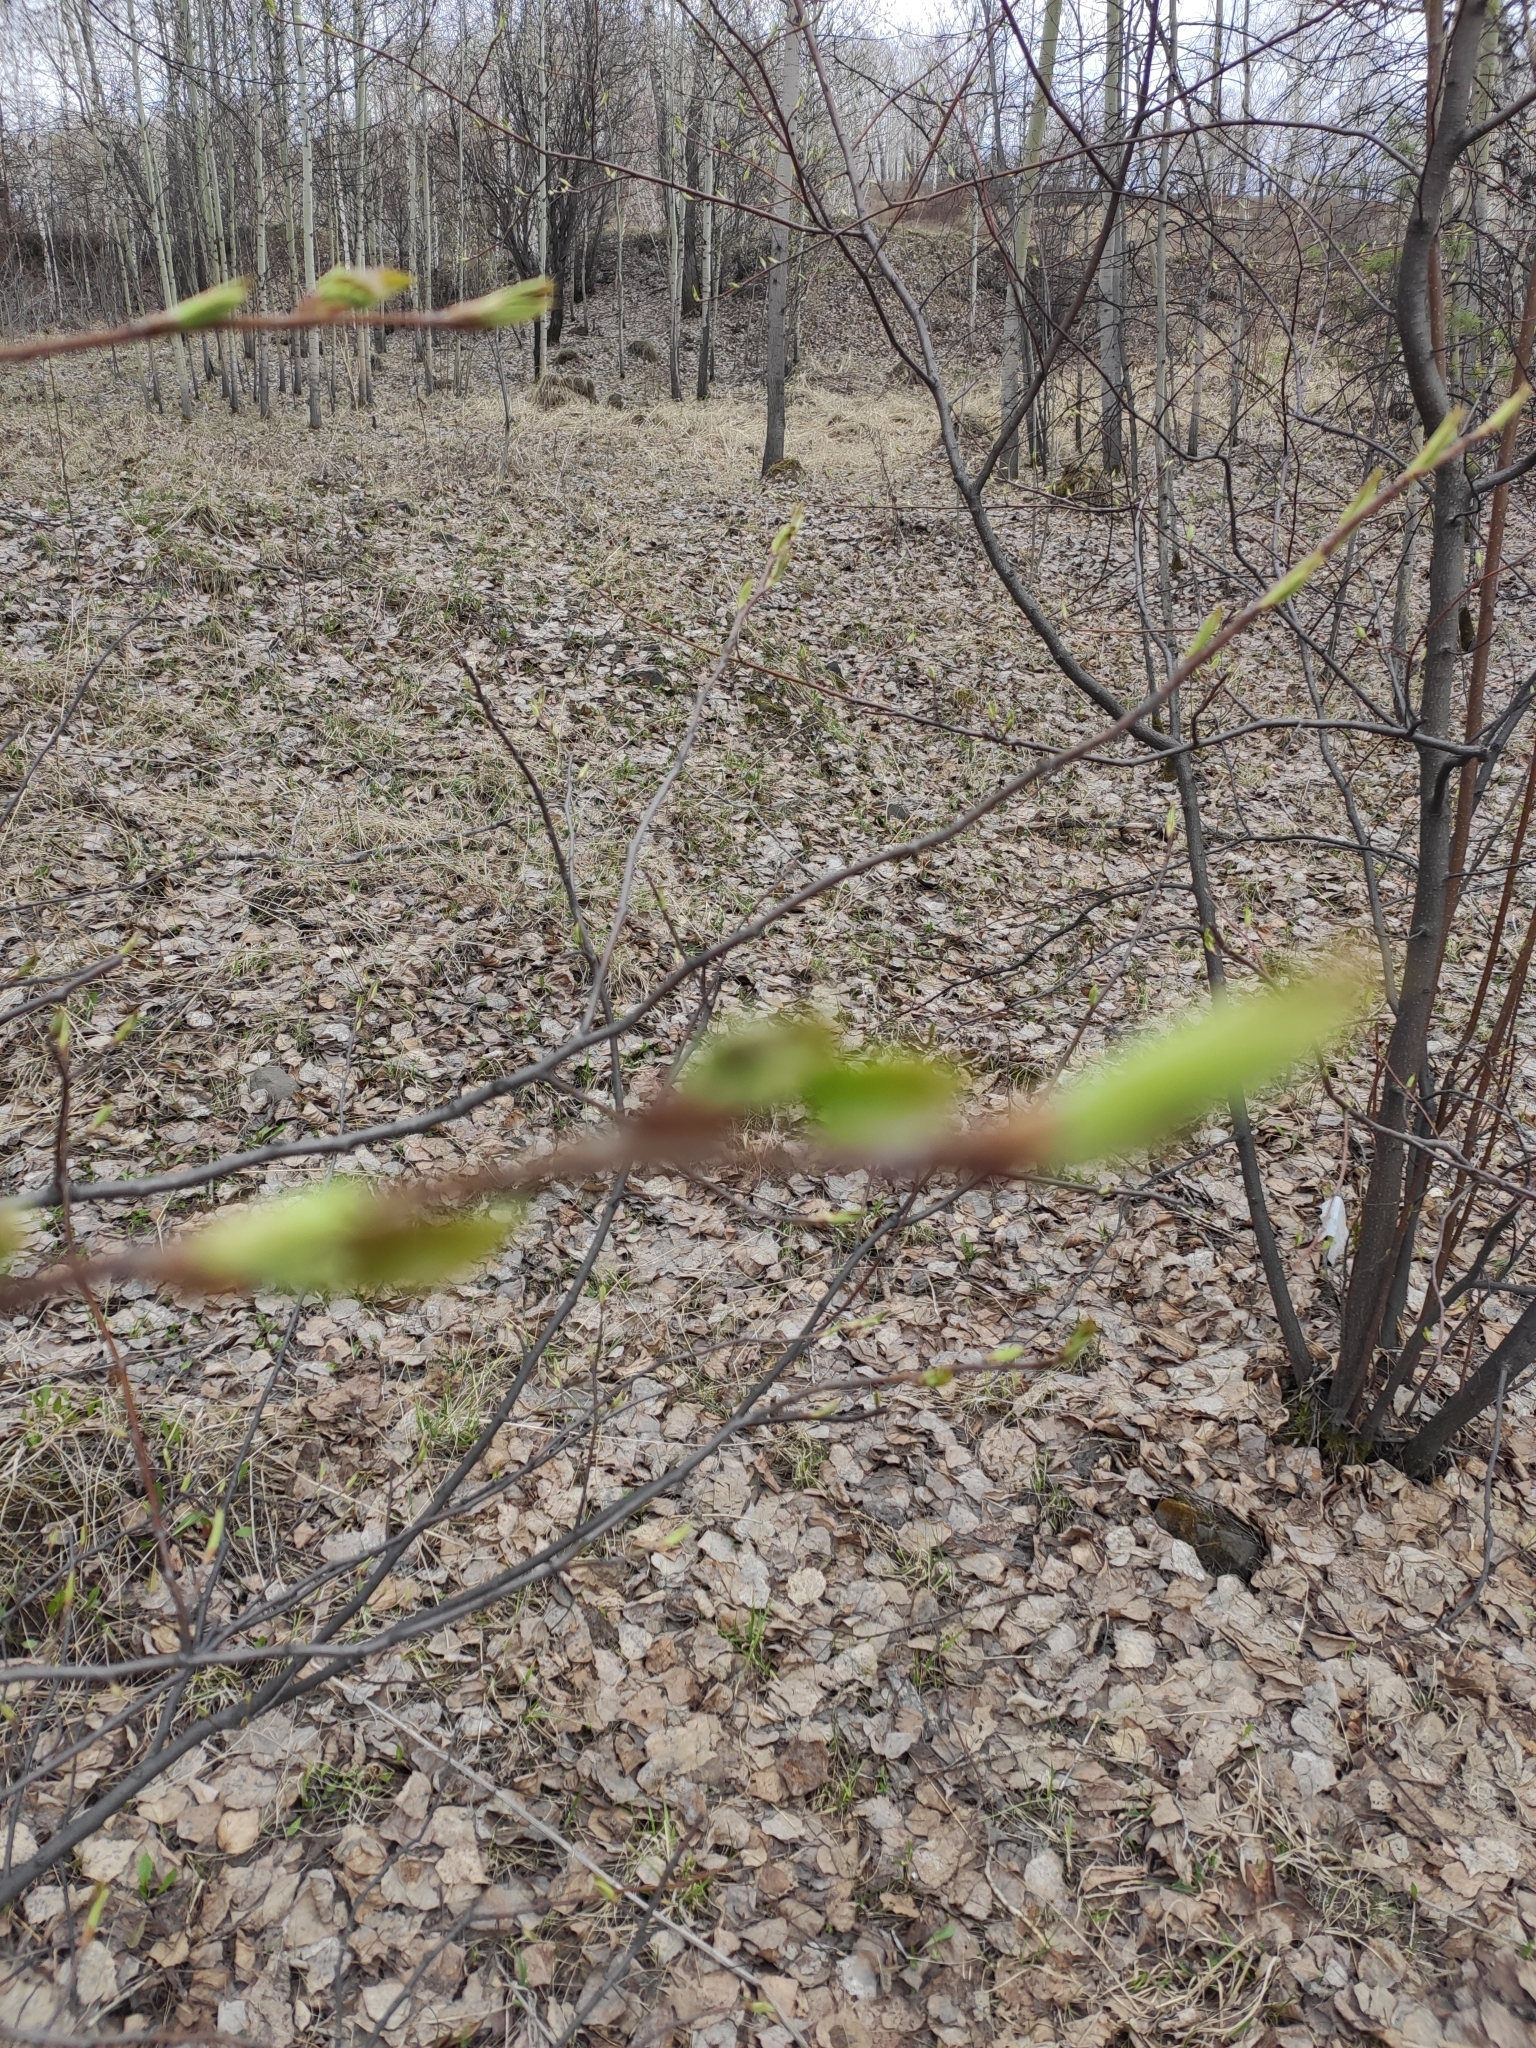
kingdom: Plantae
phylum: Tracheophyta
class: Magnoliopsida
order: Rosales
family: Rosaceae
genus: Prunus
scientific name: Prunus padus
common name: Bird cherry
